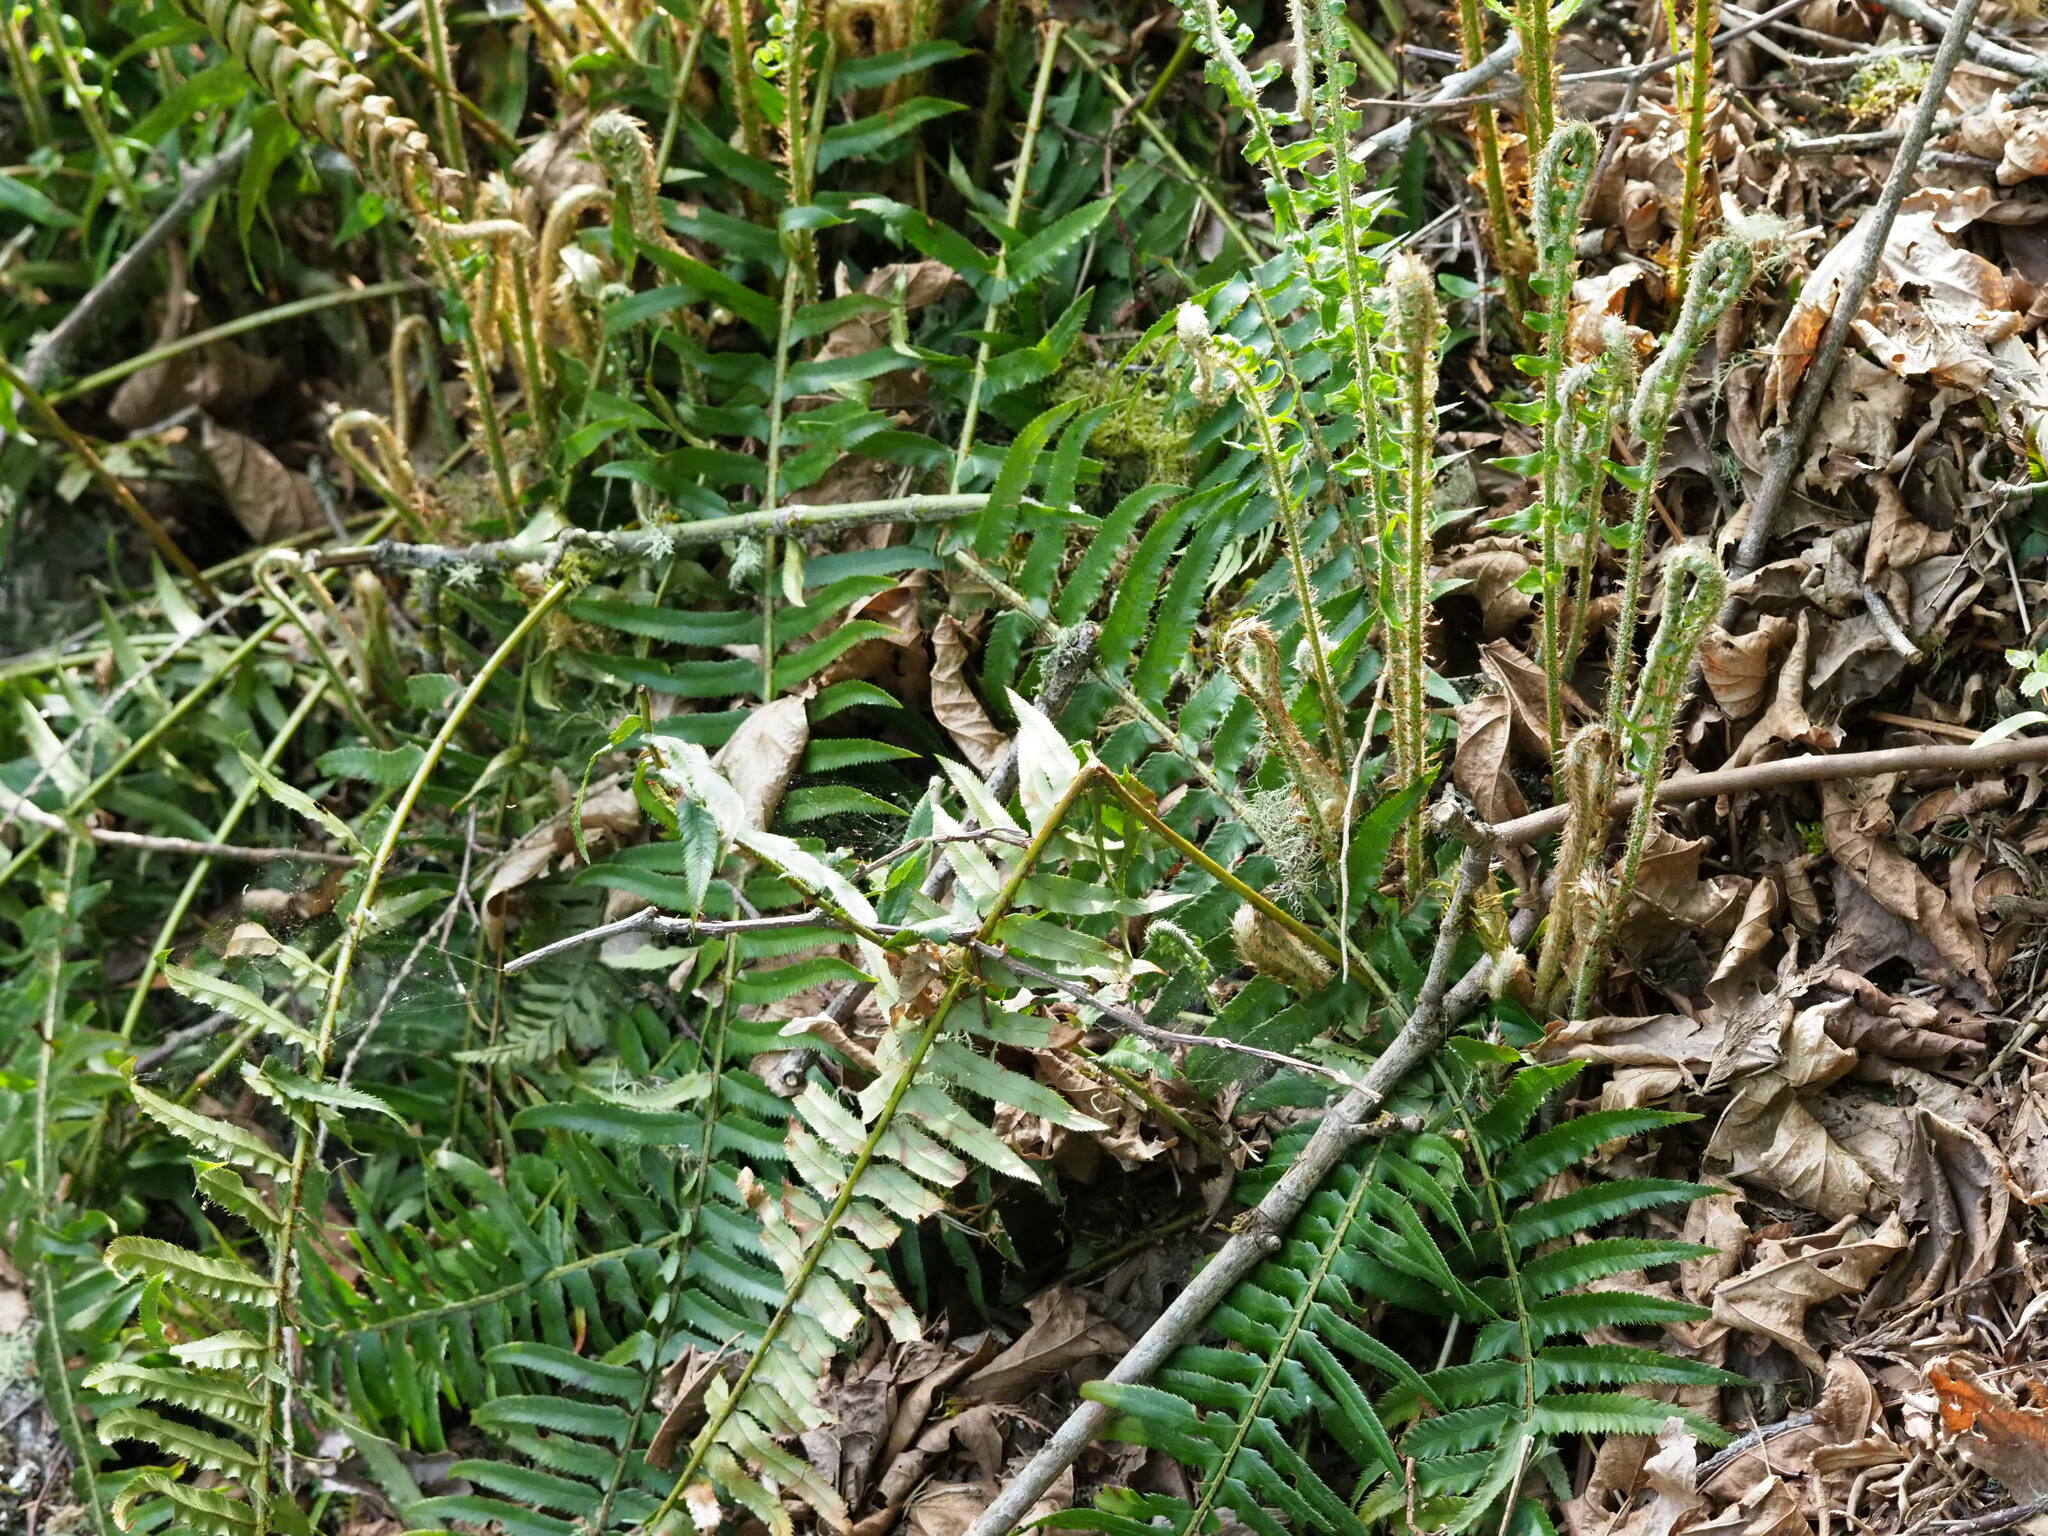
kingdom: Plantae
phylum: Tracheophyta
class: Polypodiopsida
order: Polypodiales
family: Dryopteridaceae
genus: Polystichum
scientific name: Polystichum munitum
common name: Western sword-fern
